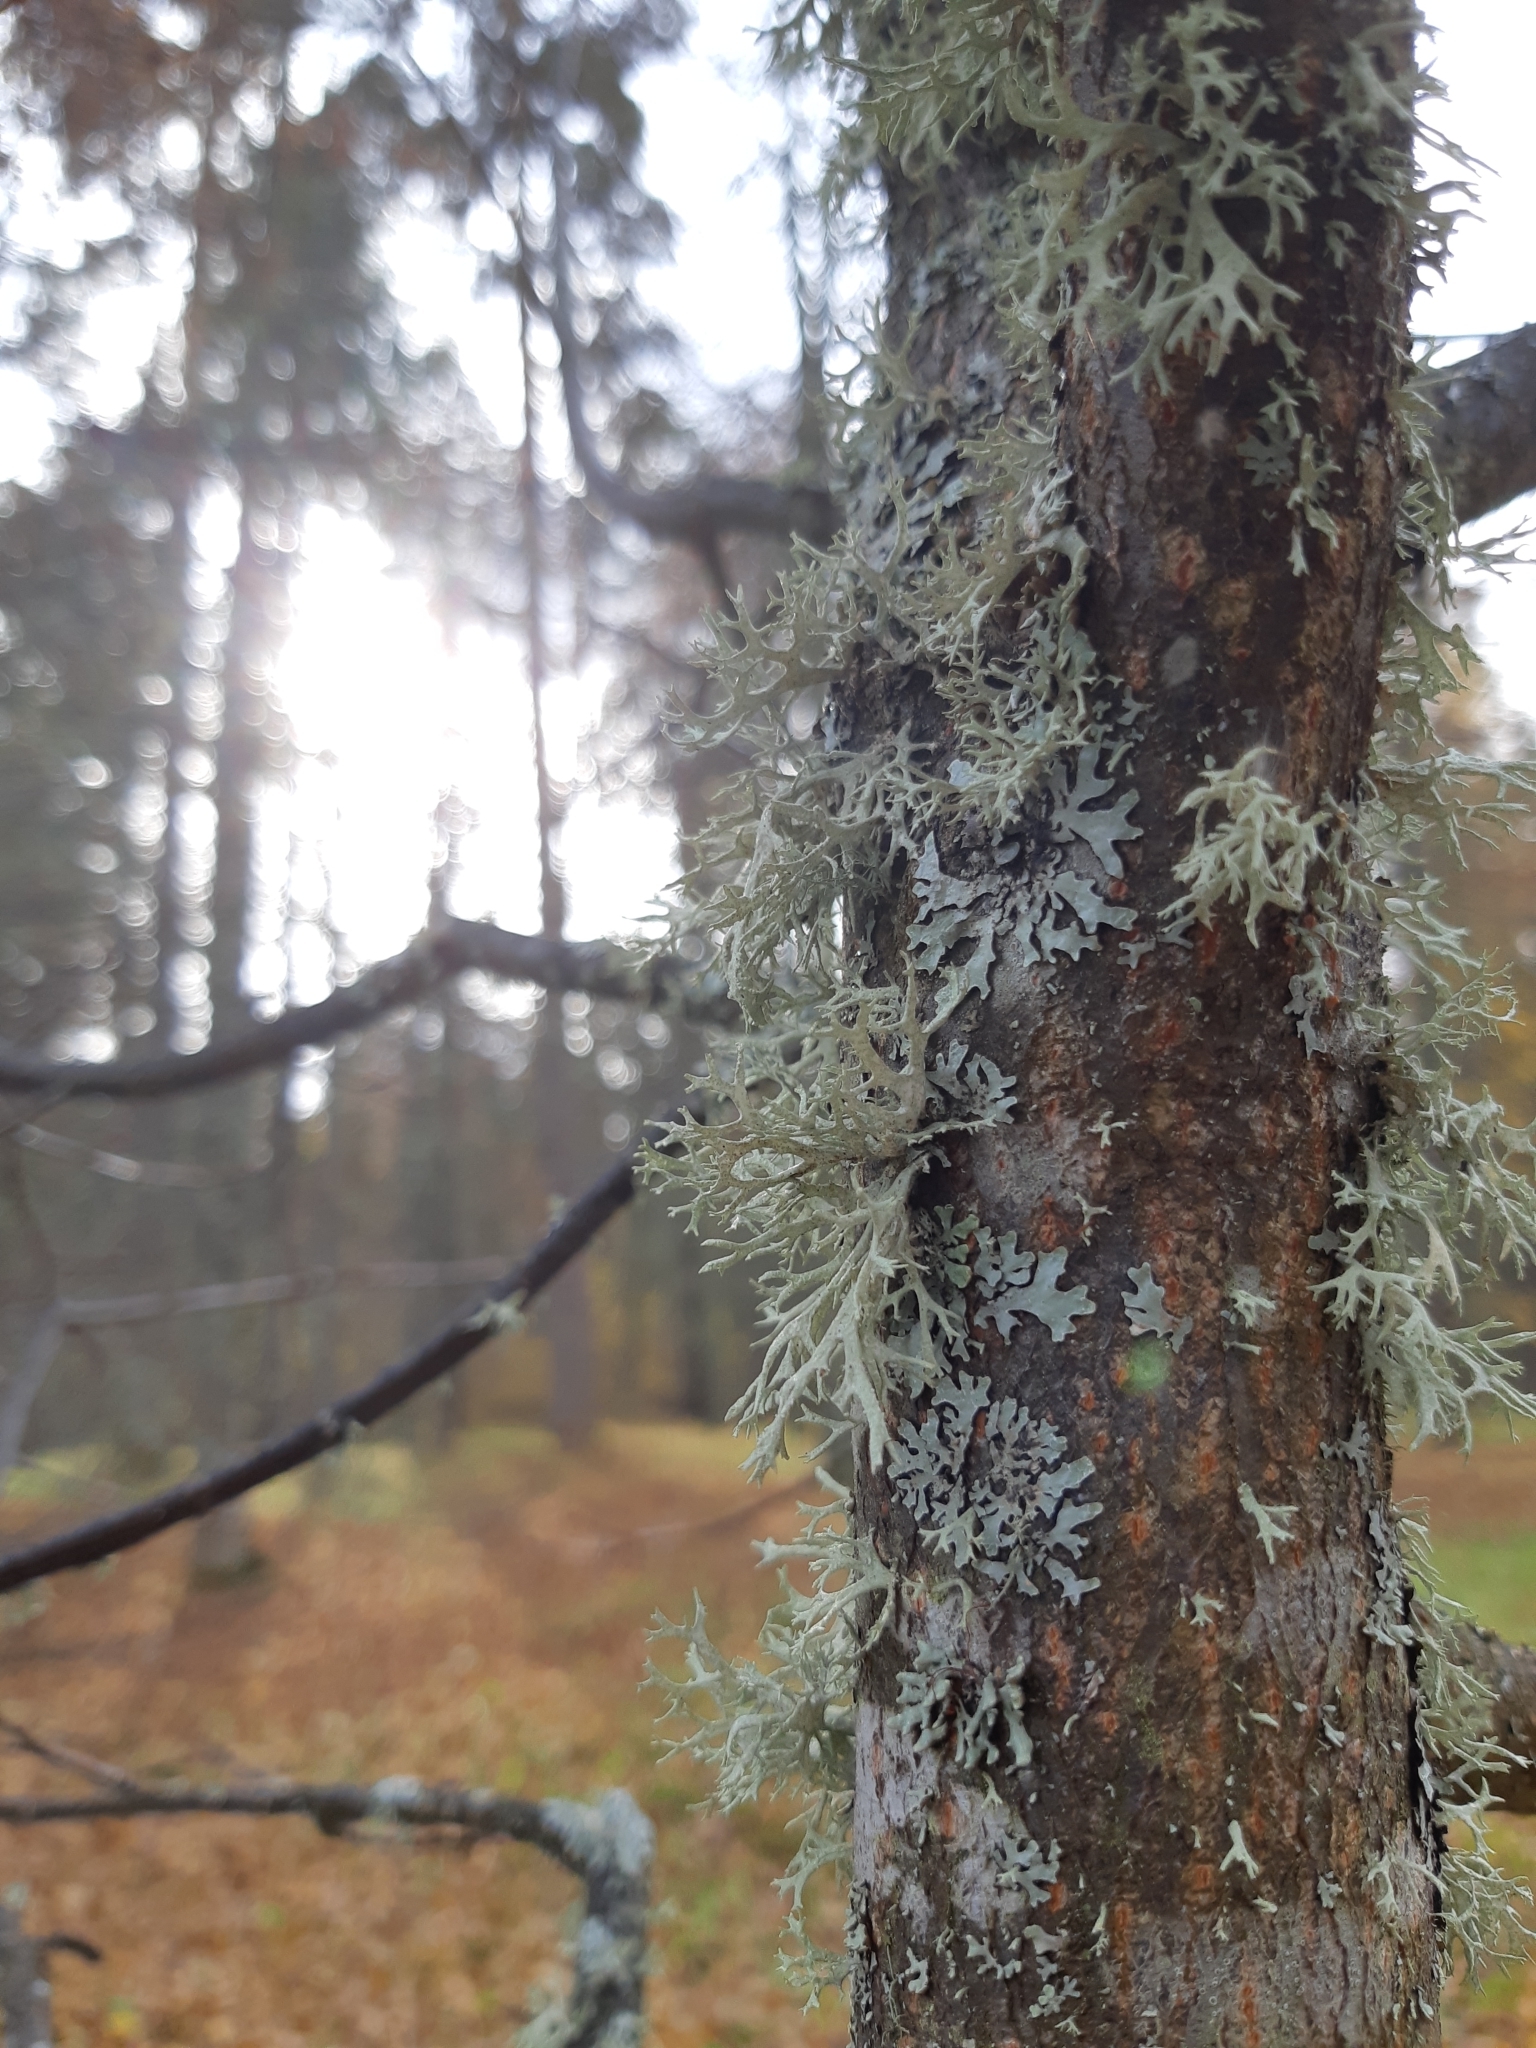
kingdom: Fungi
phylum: Ascomycota
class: Lecanoromycetes
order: Lecanorales
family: Parmeliaceae
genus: Evernia
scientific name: Evernia prunastri
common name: Oak moss
